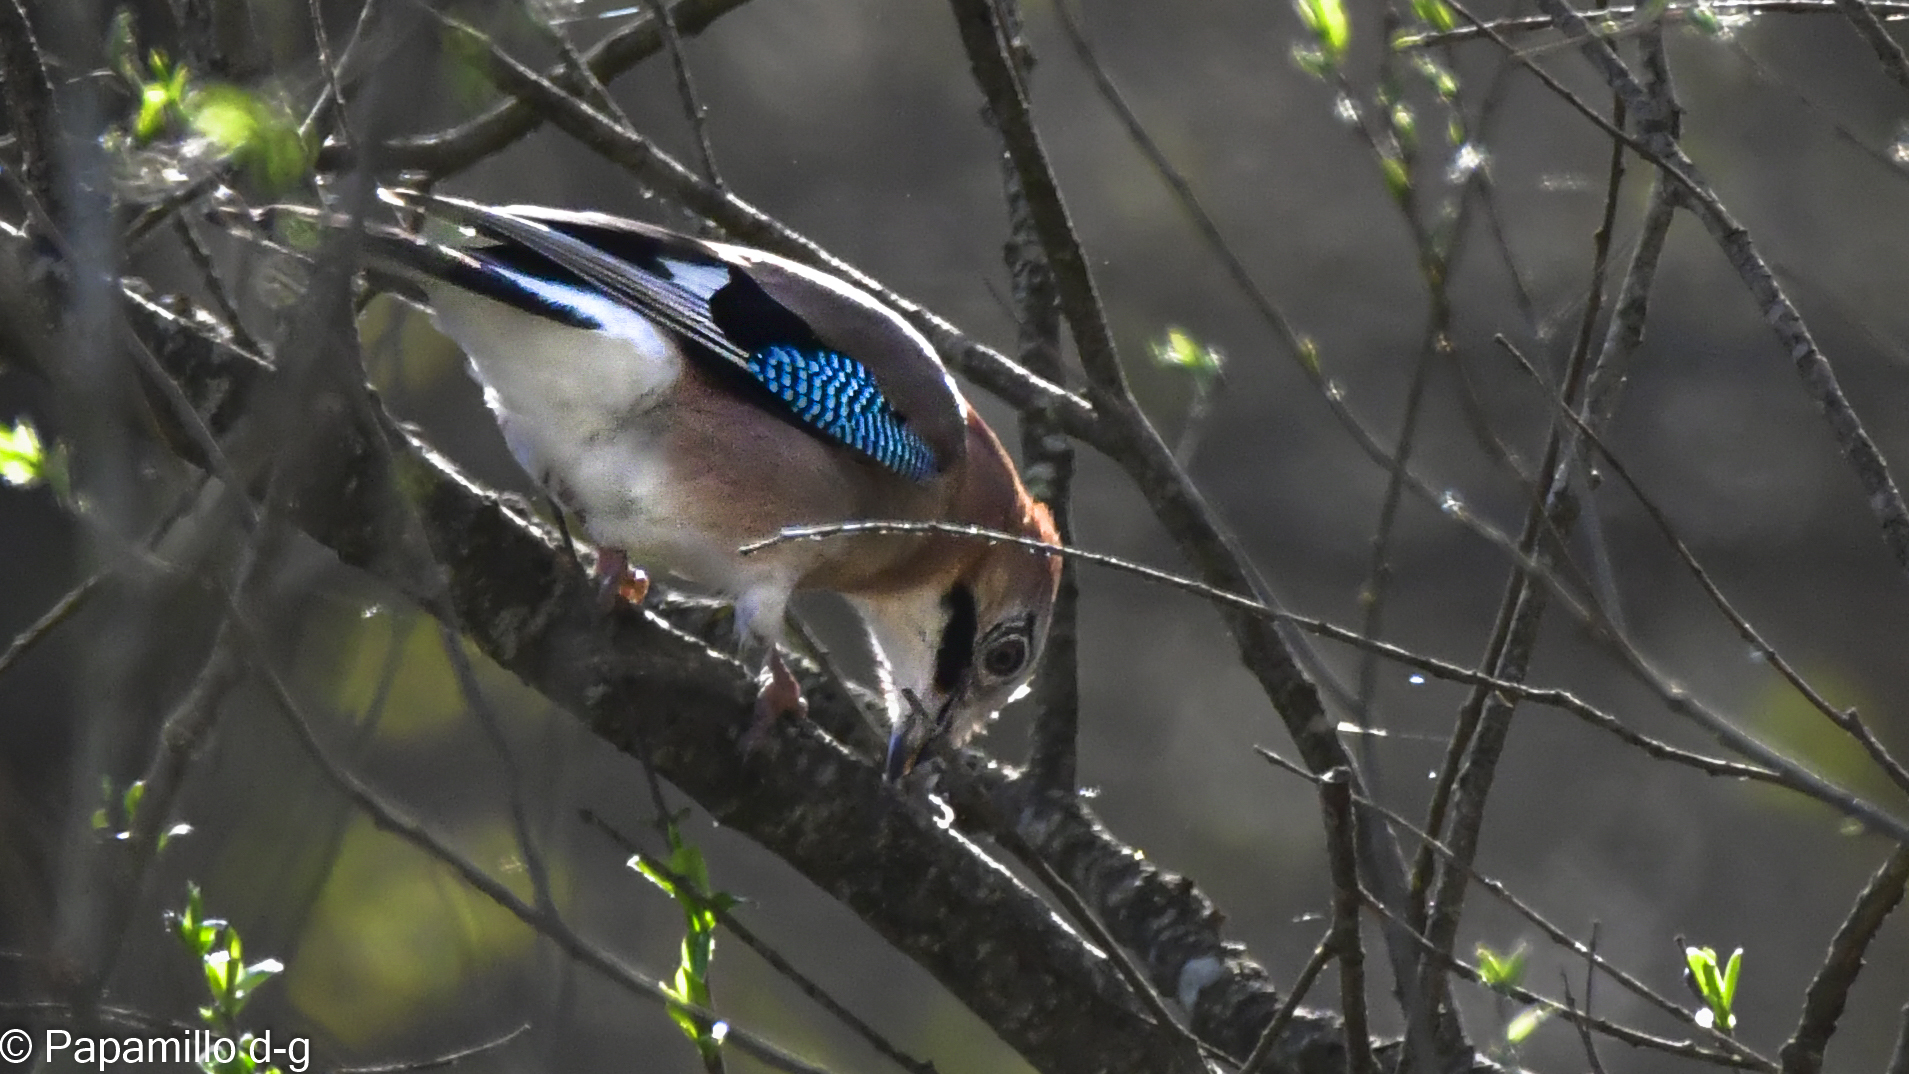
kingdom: Animalia
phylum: Chordata
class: Aves
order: Passeriformes
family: Corvidae
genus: Garrulus
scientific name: Garrulus glandarius
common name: Eurasian jay
